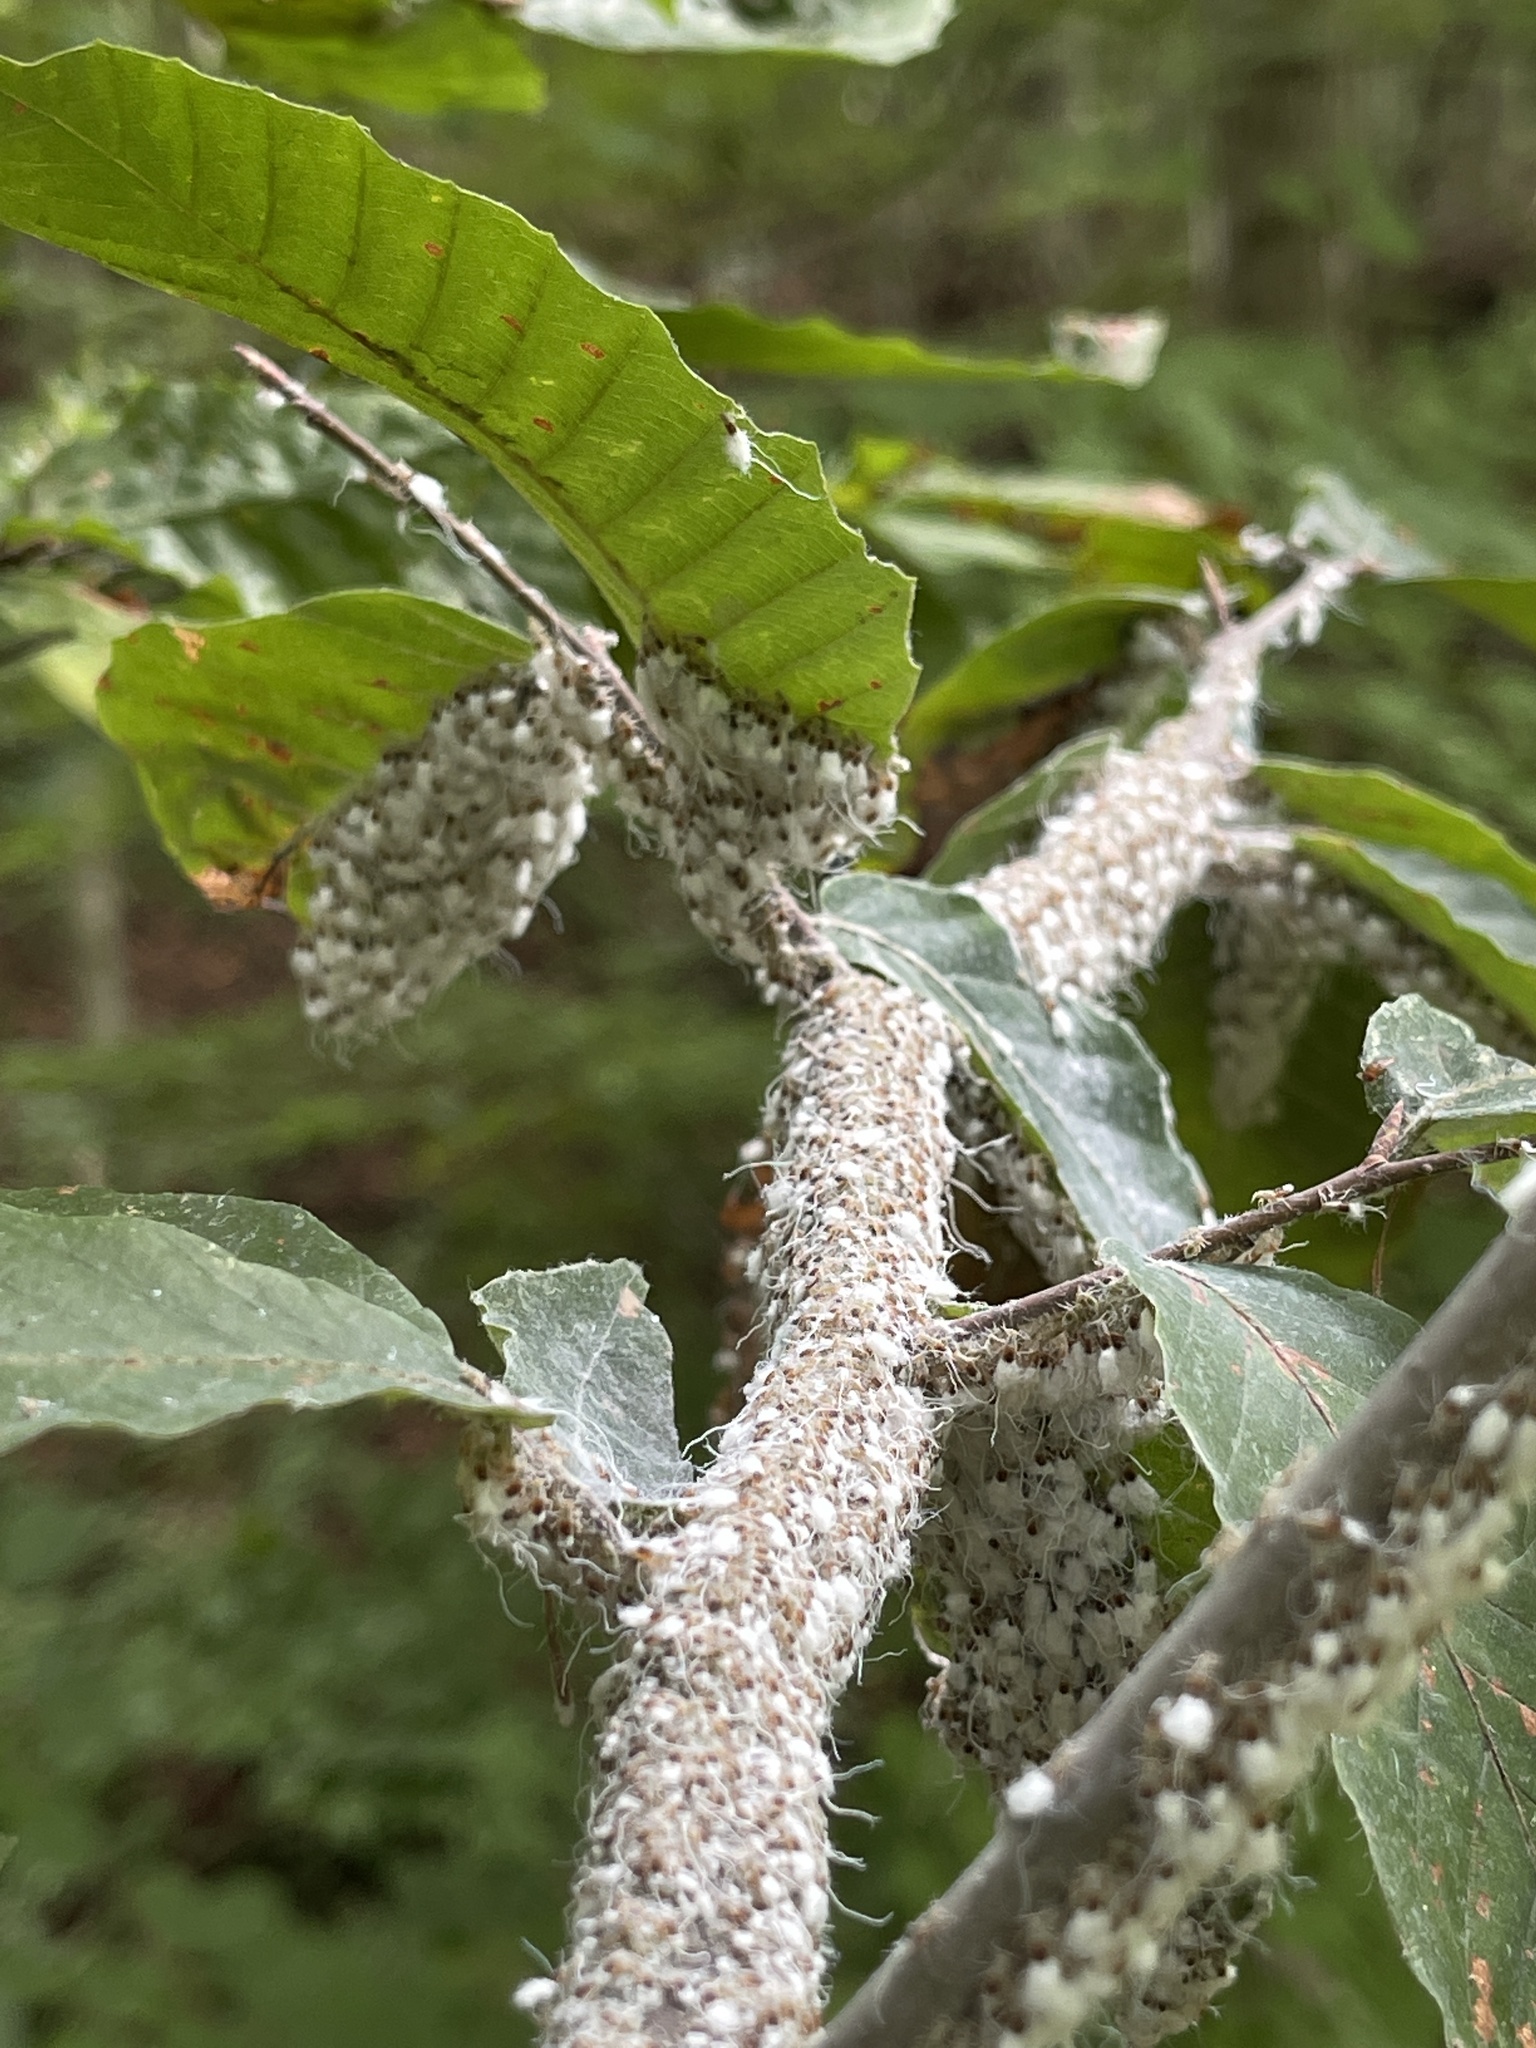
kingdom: Animalia
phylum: Arthropoda
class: Insecta
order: Hemiptera
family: Aphididae
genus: Grylloprociphilus
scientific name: Grylloprociphilus imbricator
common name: Beech blight aphid
